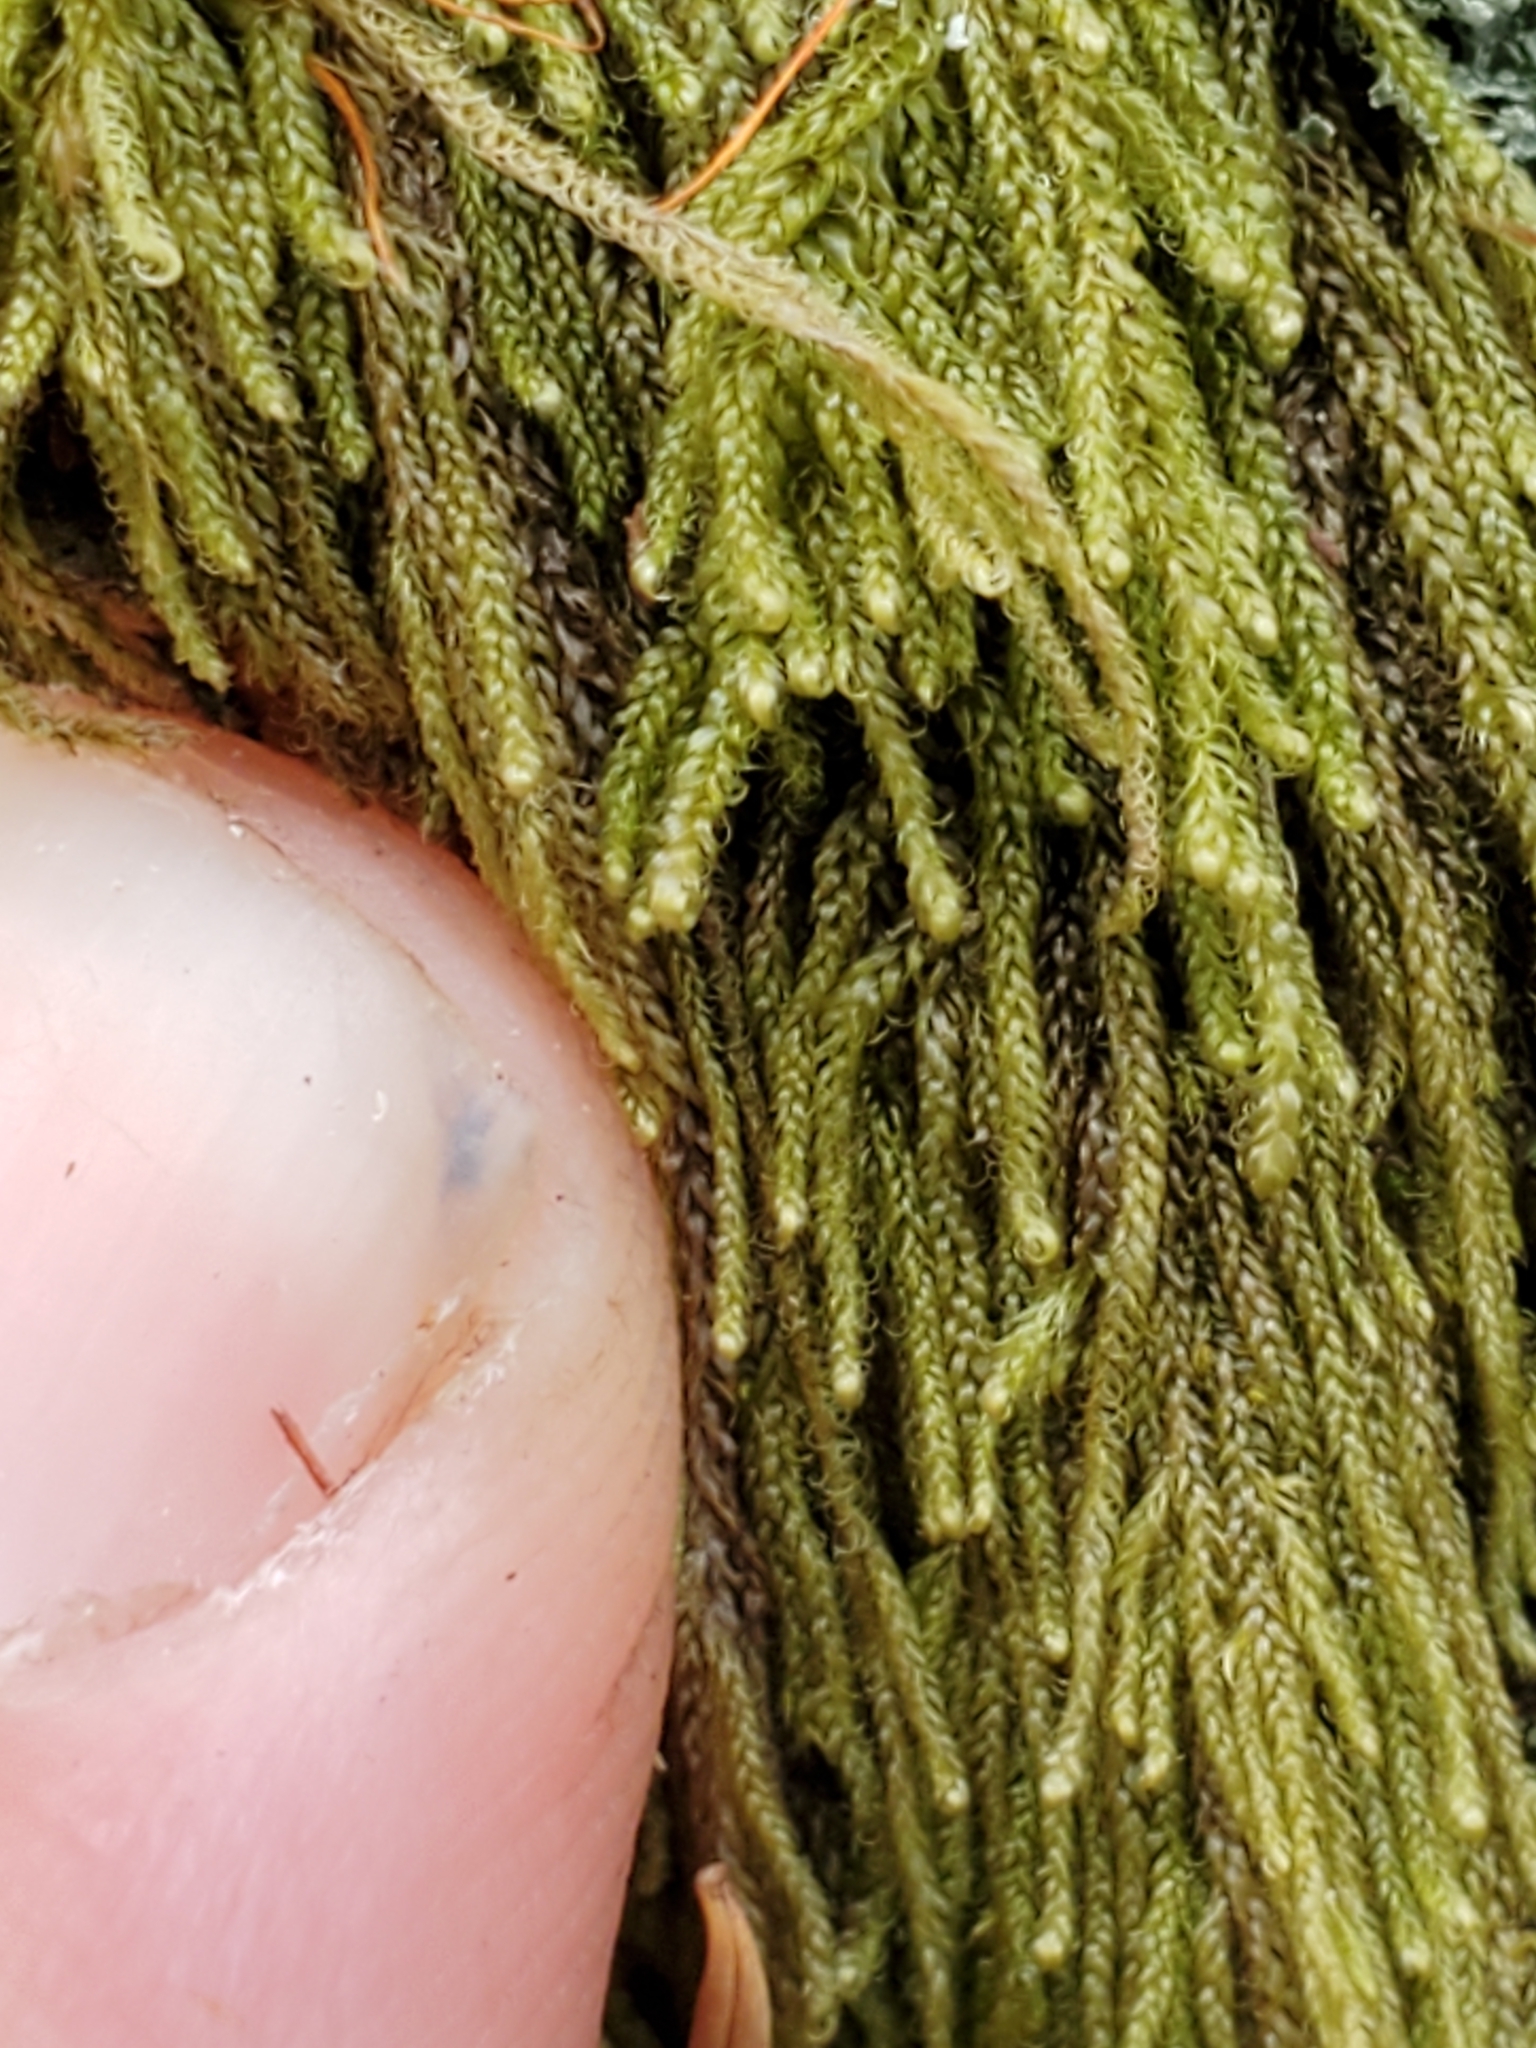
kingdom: Plantae
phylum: Bryophyta
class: Bryopsida
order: Hypnales
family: Pylaisiadelphaceae
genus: Trochophyllohypnum
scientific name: Trochophyllohypnum circinale
